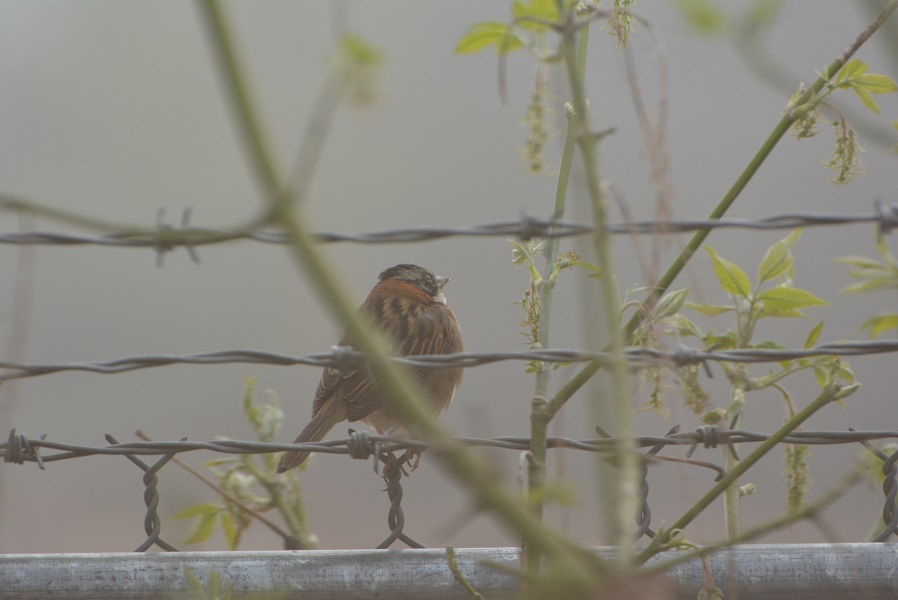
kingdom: Animalia
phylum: Chordata
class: Aves
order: Passeriformes
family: Passerellidae
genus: Zonotrichia
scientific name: Zonotrichia capensis
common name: Rufous-collared sparrow
